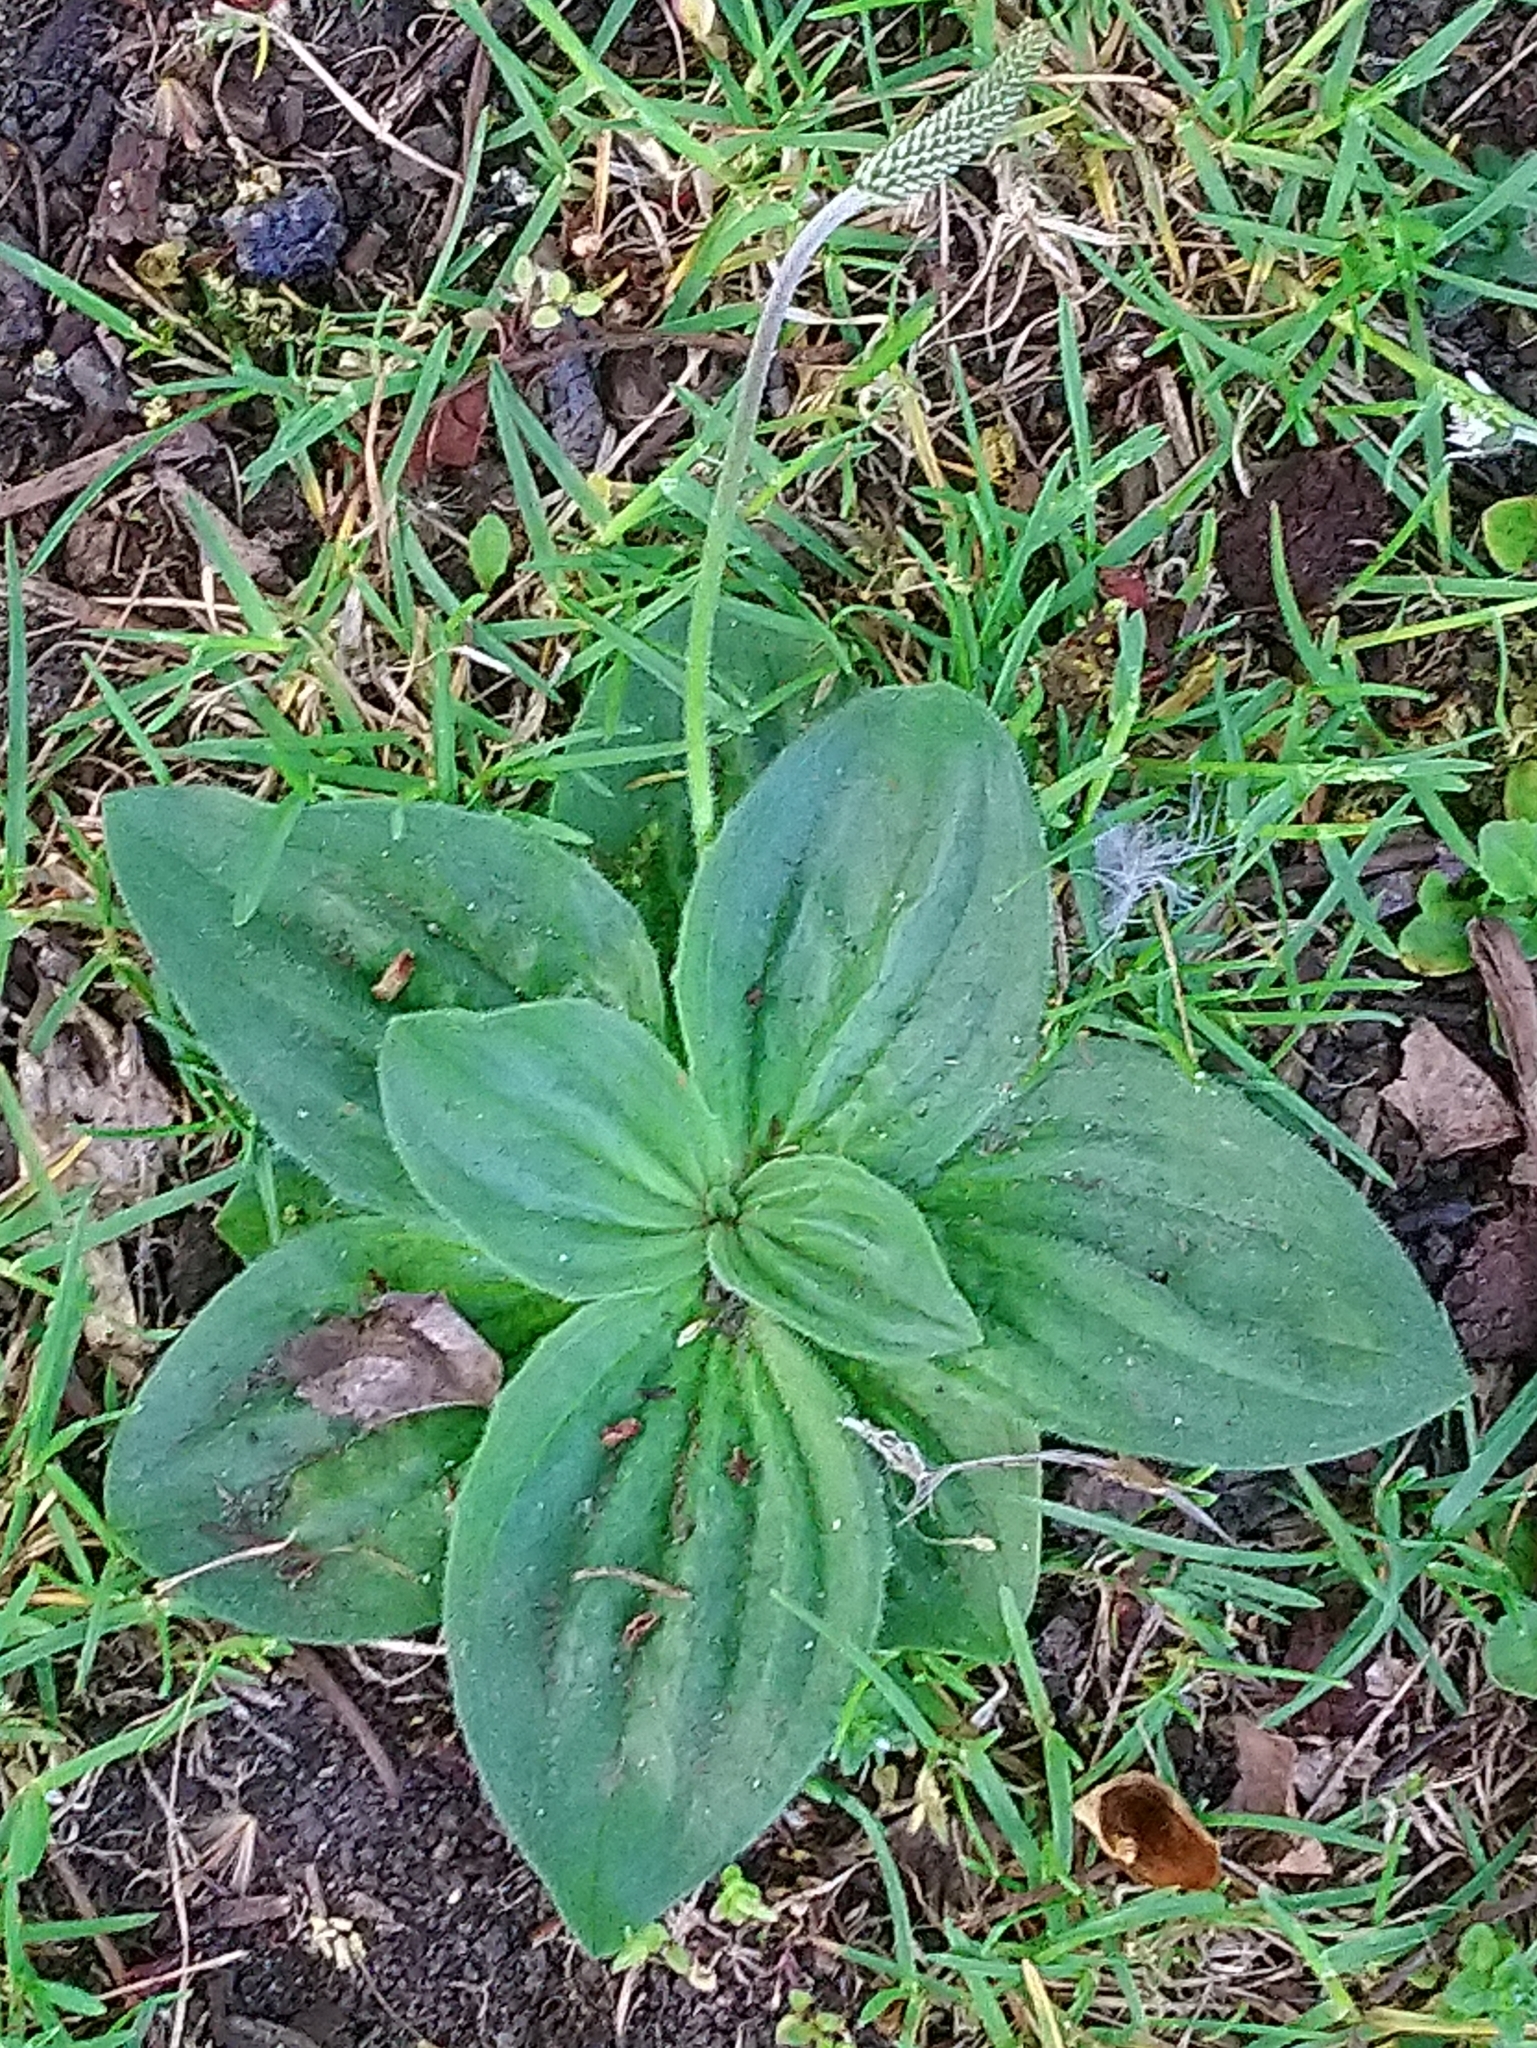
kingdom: Plantae
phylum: Tracheophyta
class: Magnoliopsida
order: Lamiales
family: Plantaginaceae
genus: Plantago
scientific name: Plantago media
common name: Hoary plantain
